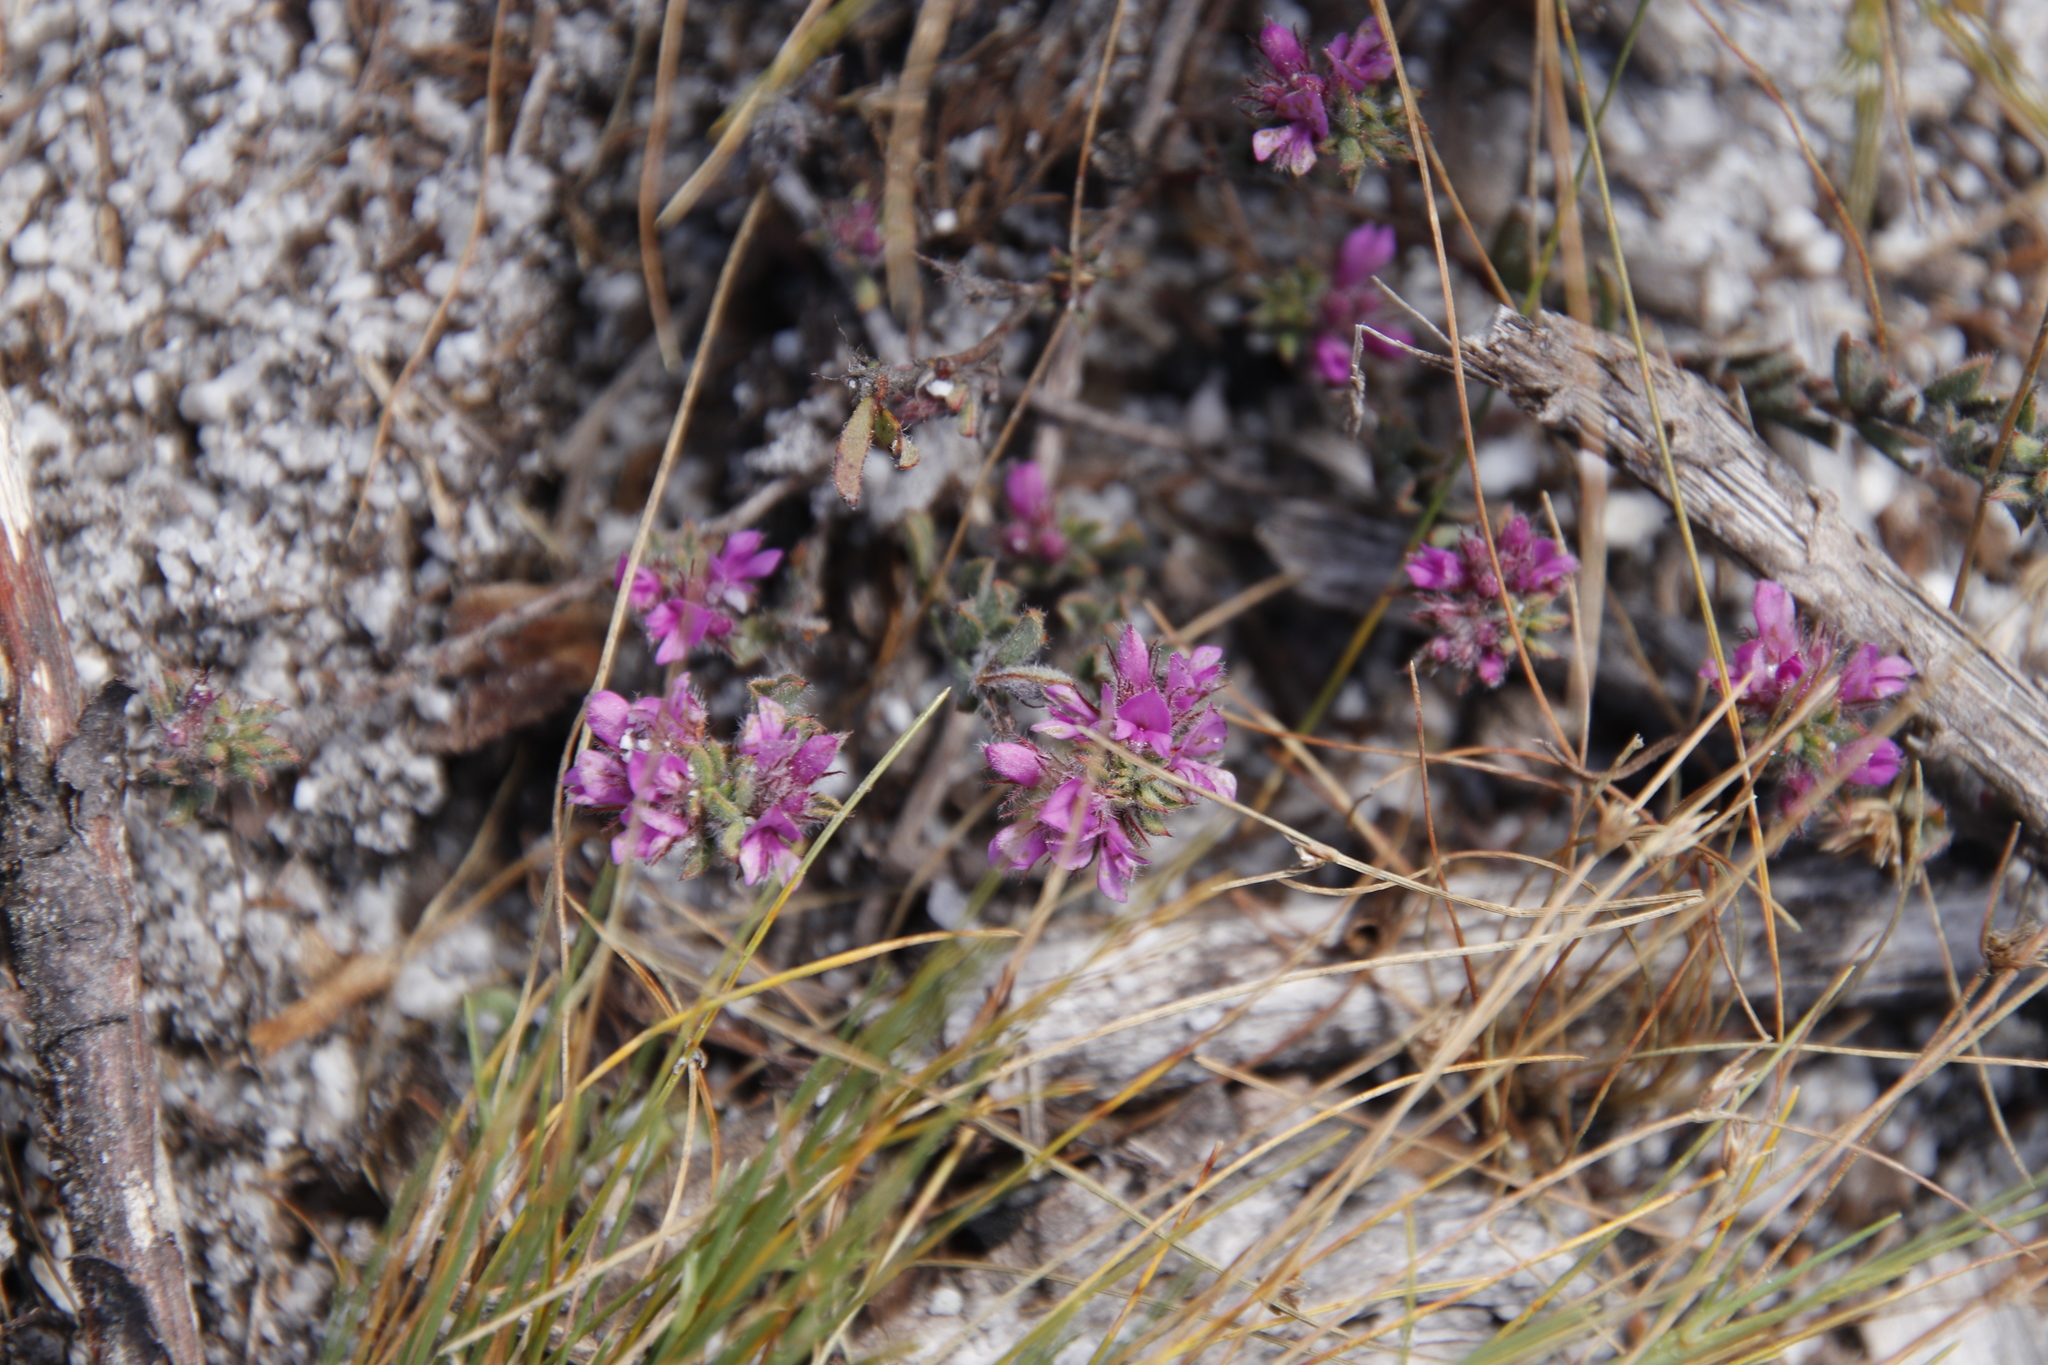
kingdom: Plantae
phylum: Tracheophyta
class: Magnoliopsida
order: Fabales
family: Fabaceae
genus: Indigofera
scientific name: Indigofera glomerata
